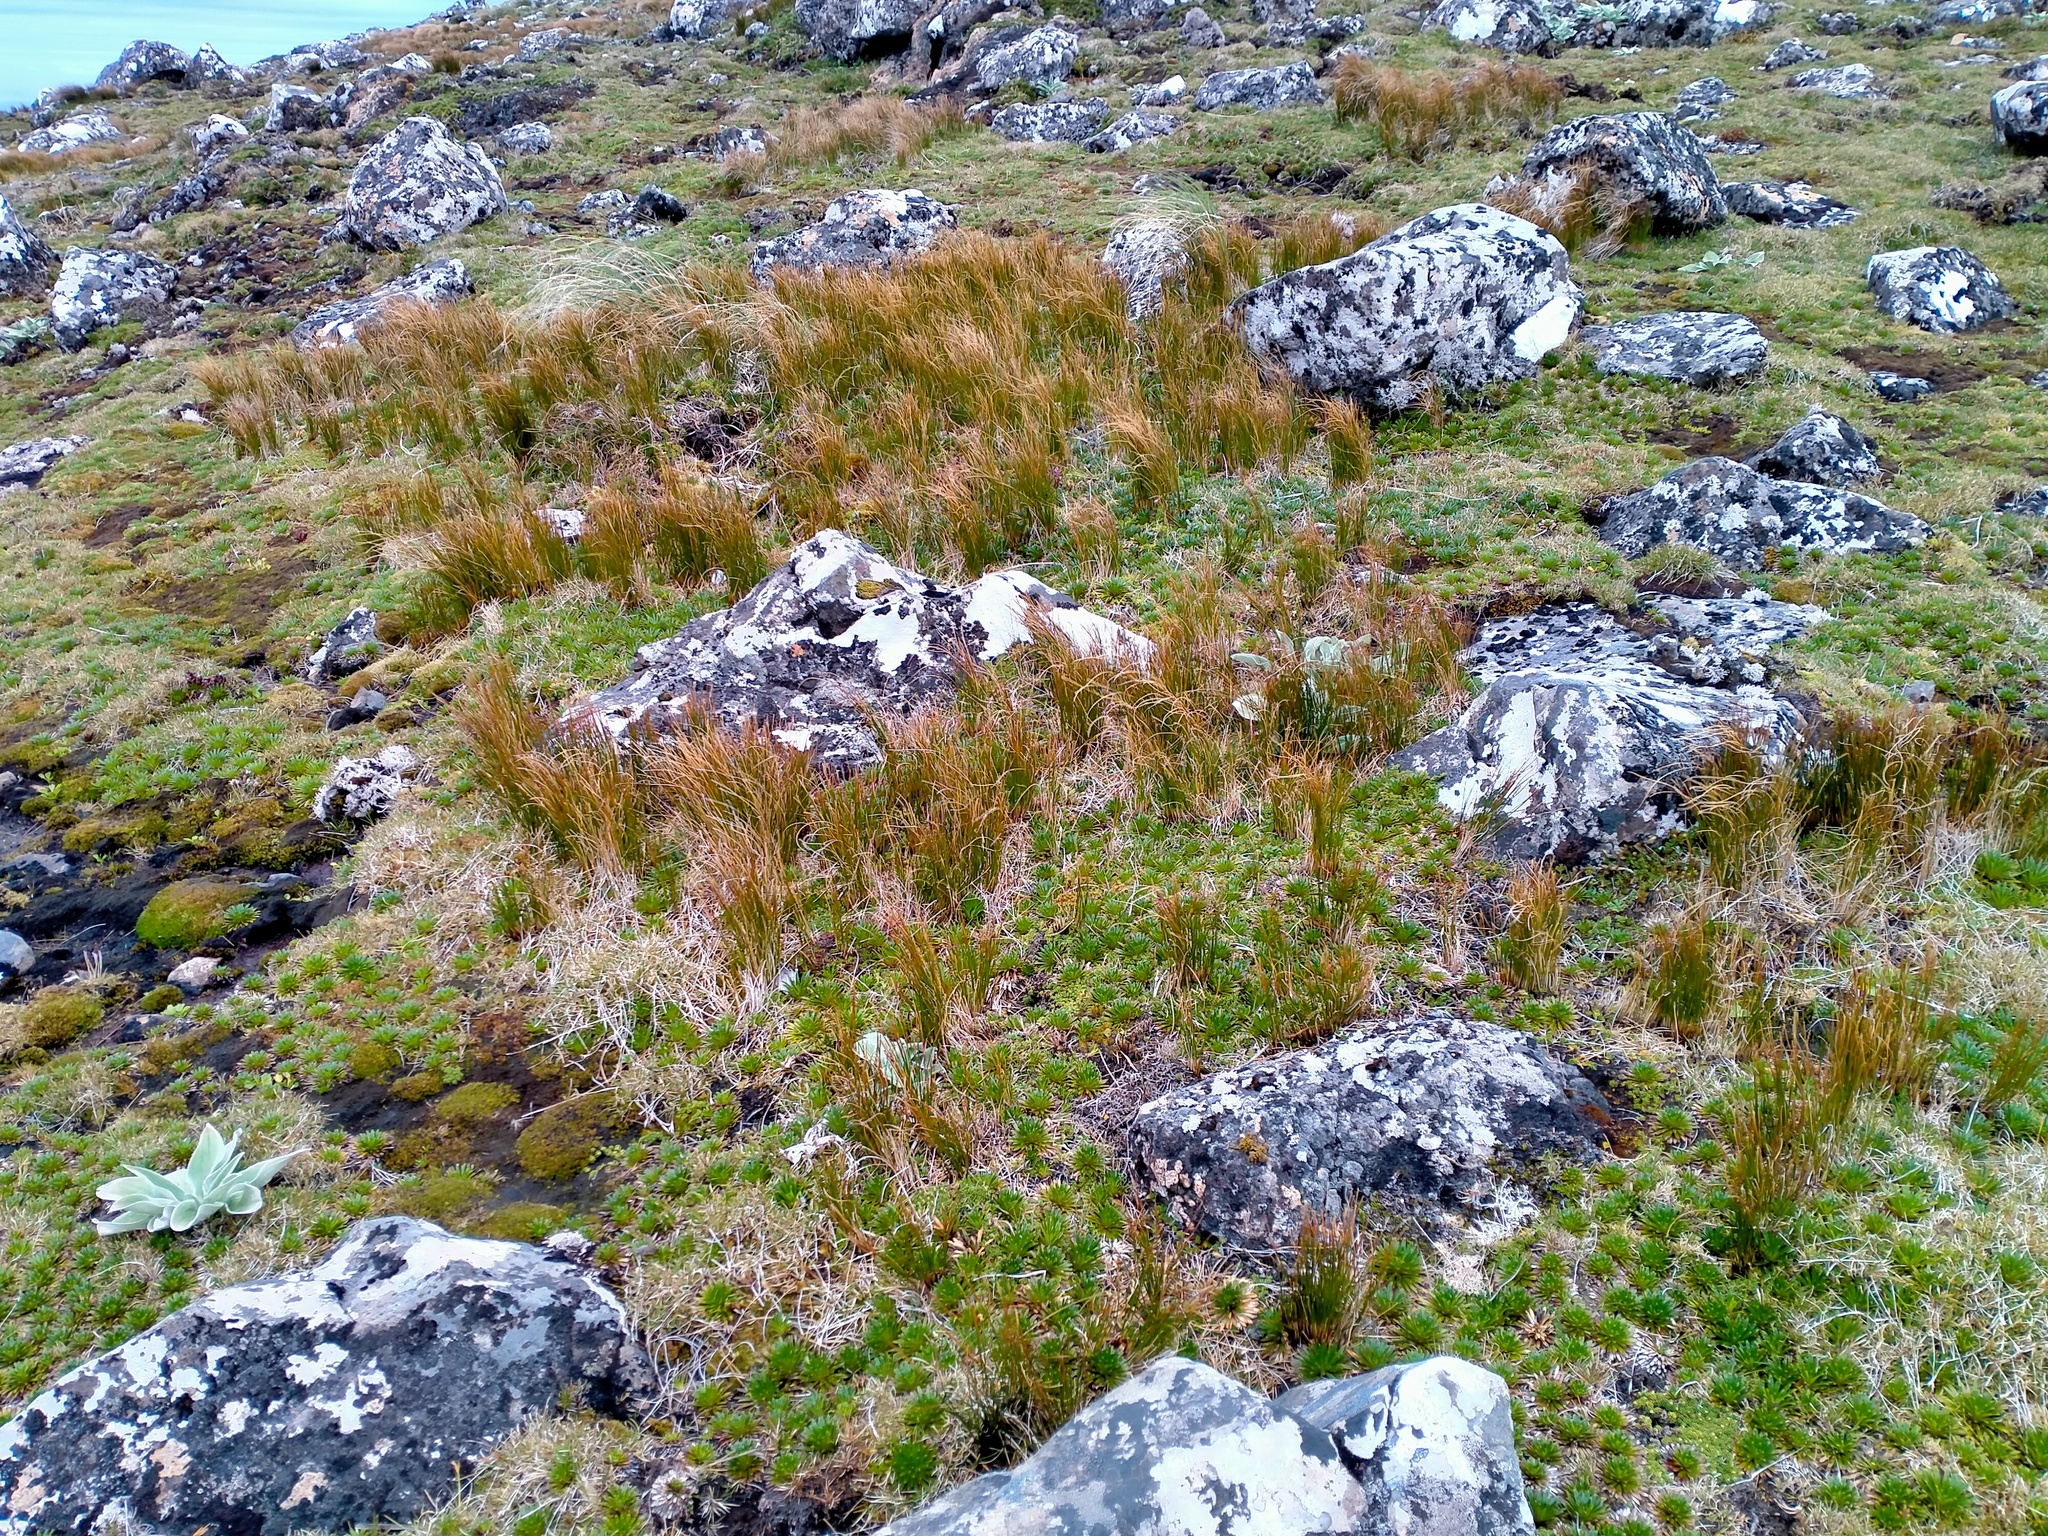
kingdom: Plantae
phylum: Tracheophyta
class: Liliopsida
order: Poales
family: Juncaceae
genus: Marsippospermum
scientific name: Marsippospermum gracile
